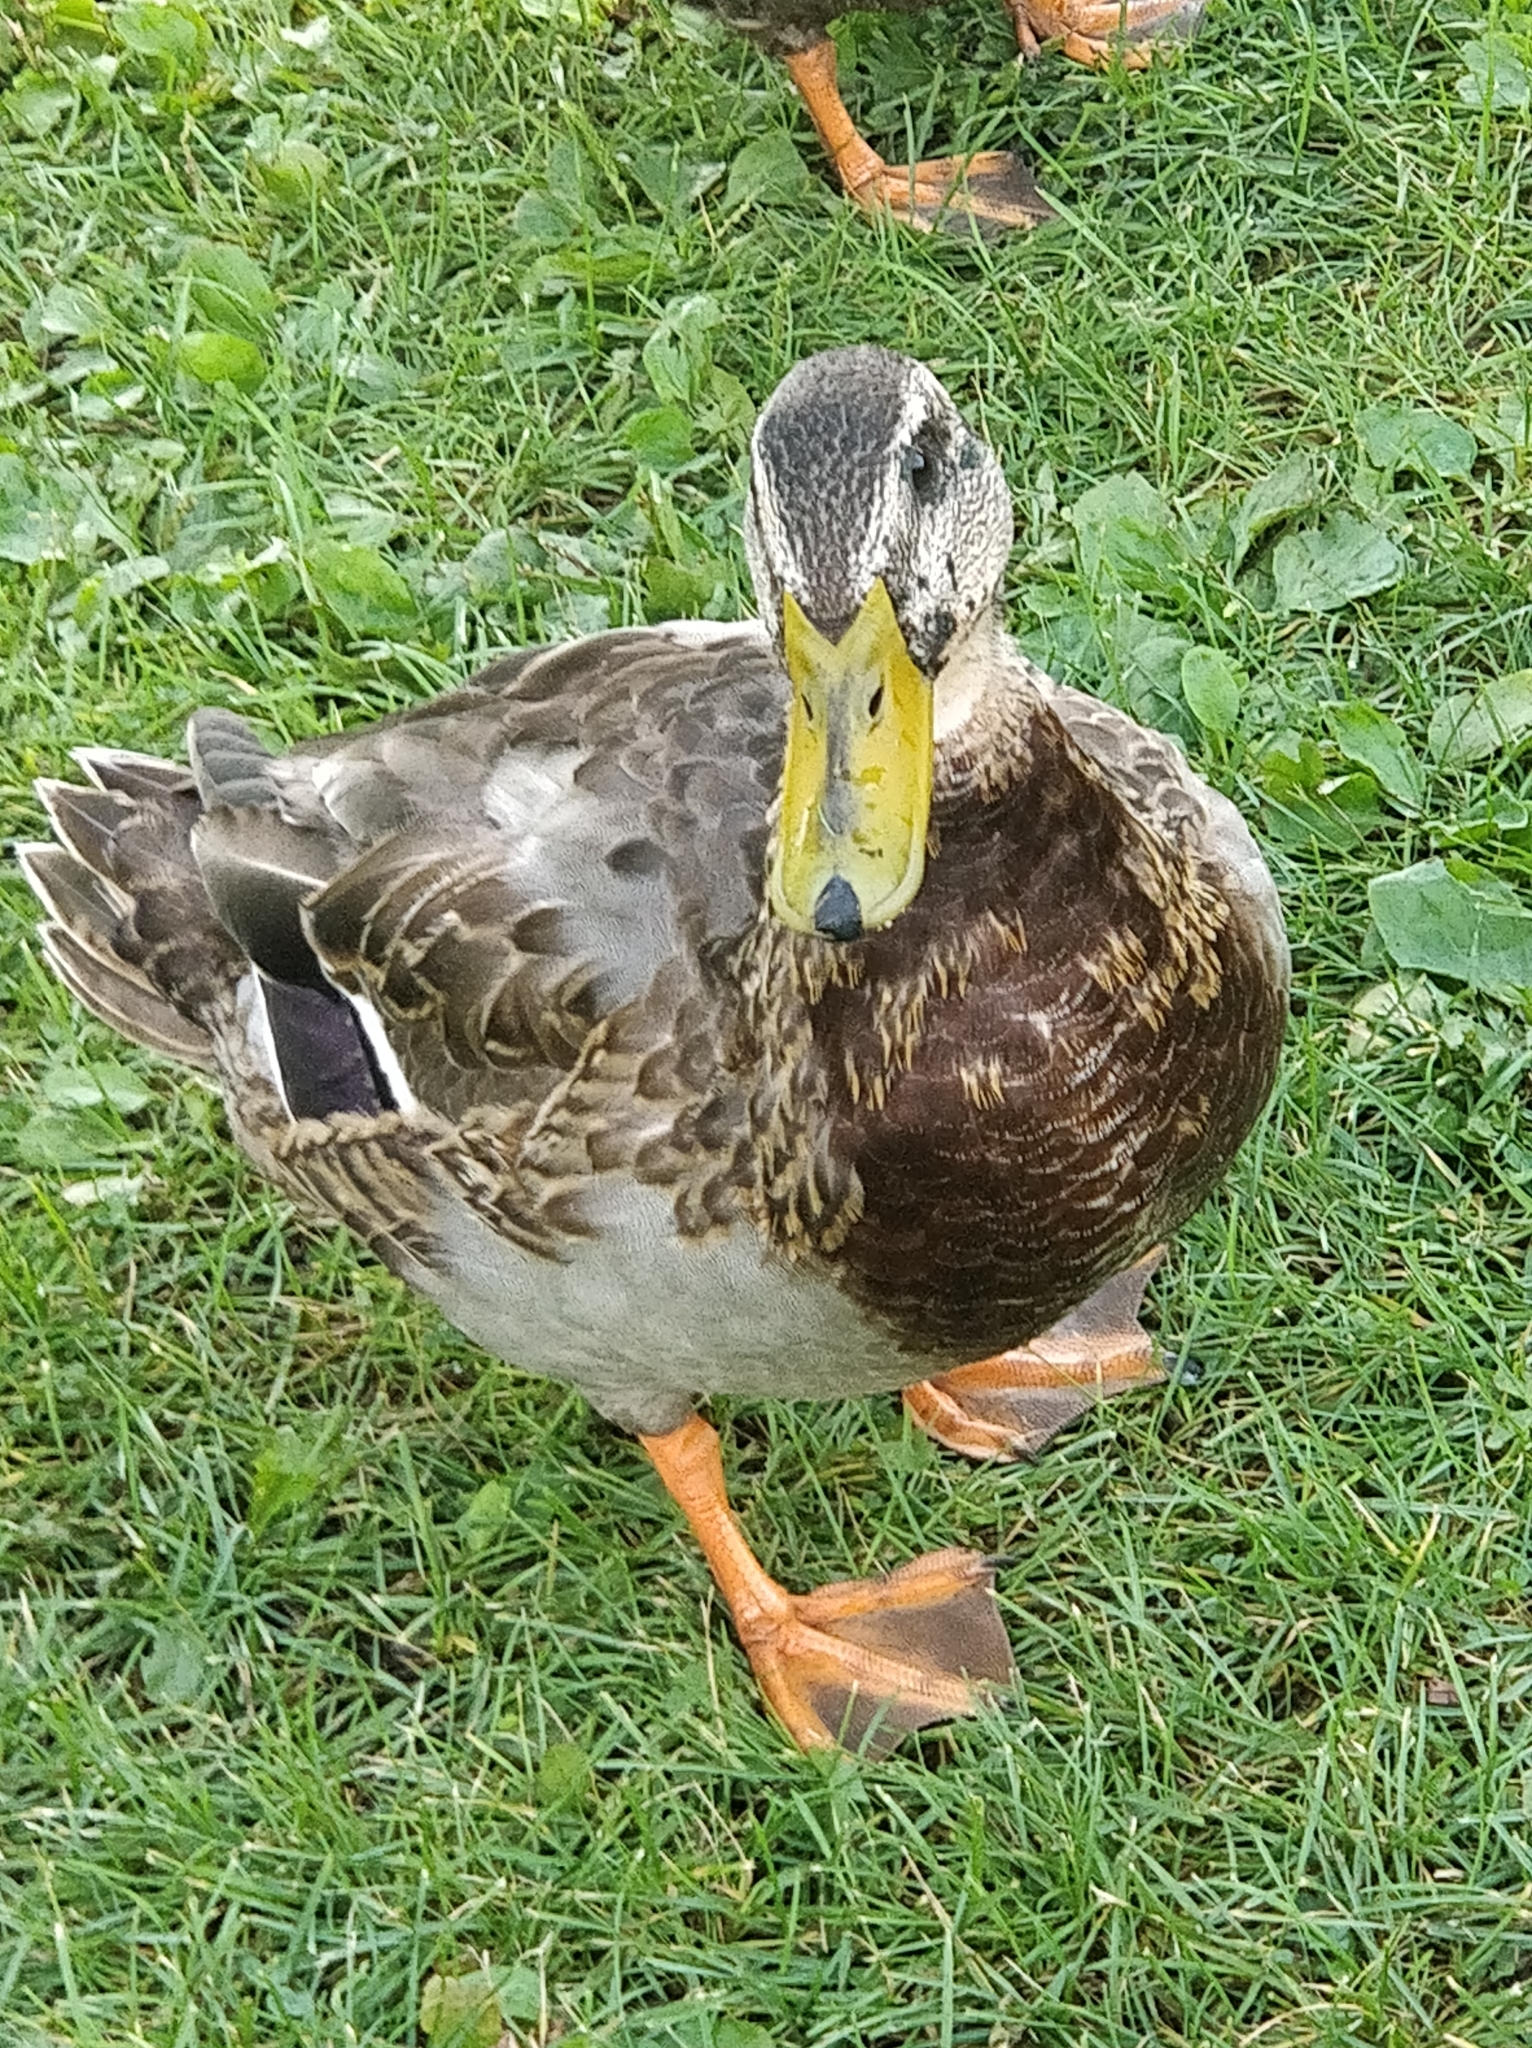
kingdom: Animalia
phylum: Chordata
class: Aves
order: Anseriformes
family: Anatidae
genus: Anas
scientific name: Anas platyrhynchos
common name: Mallard
